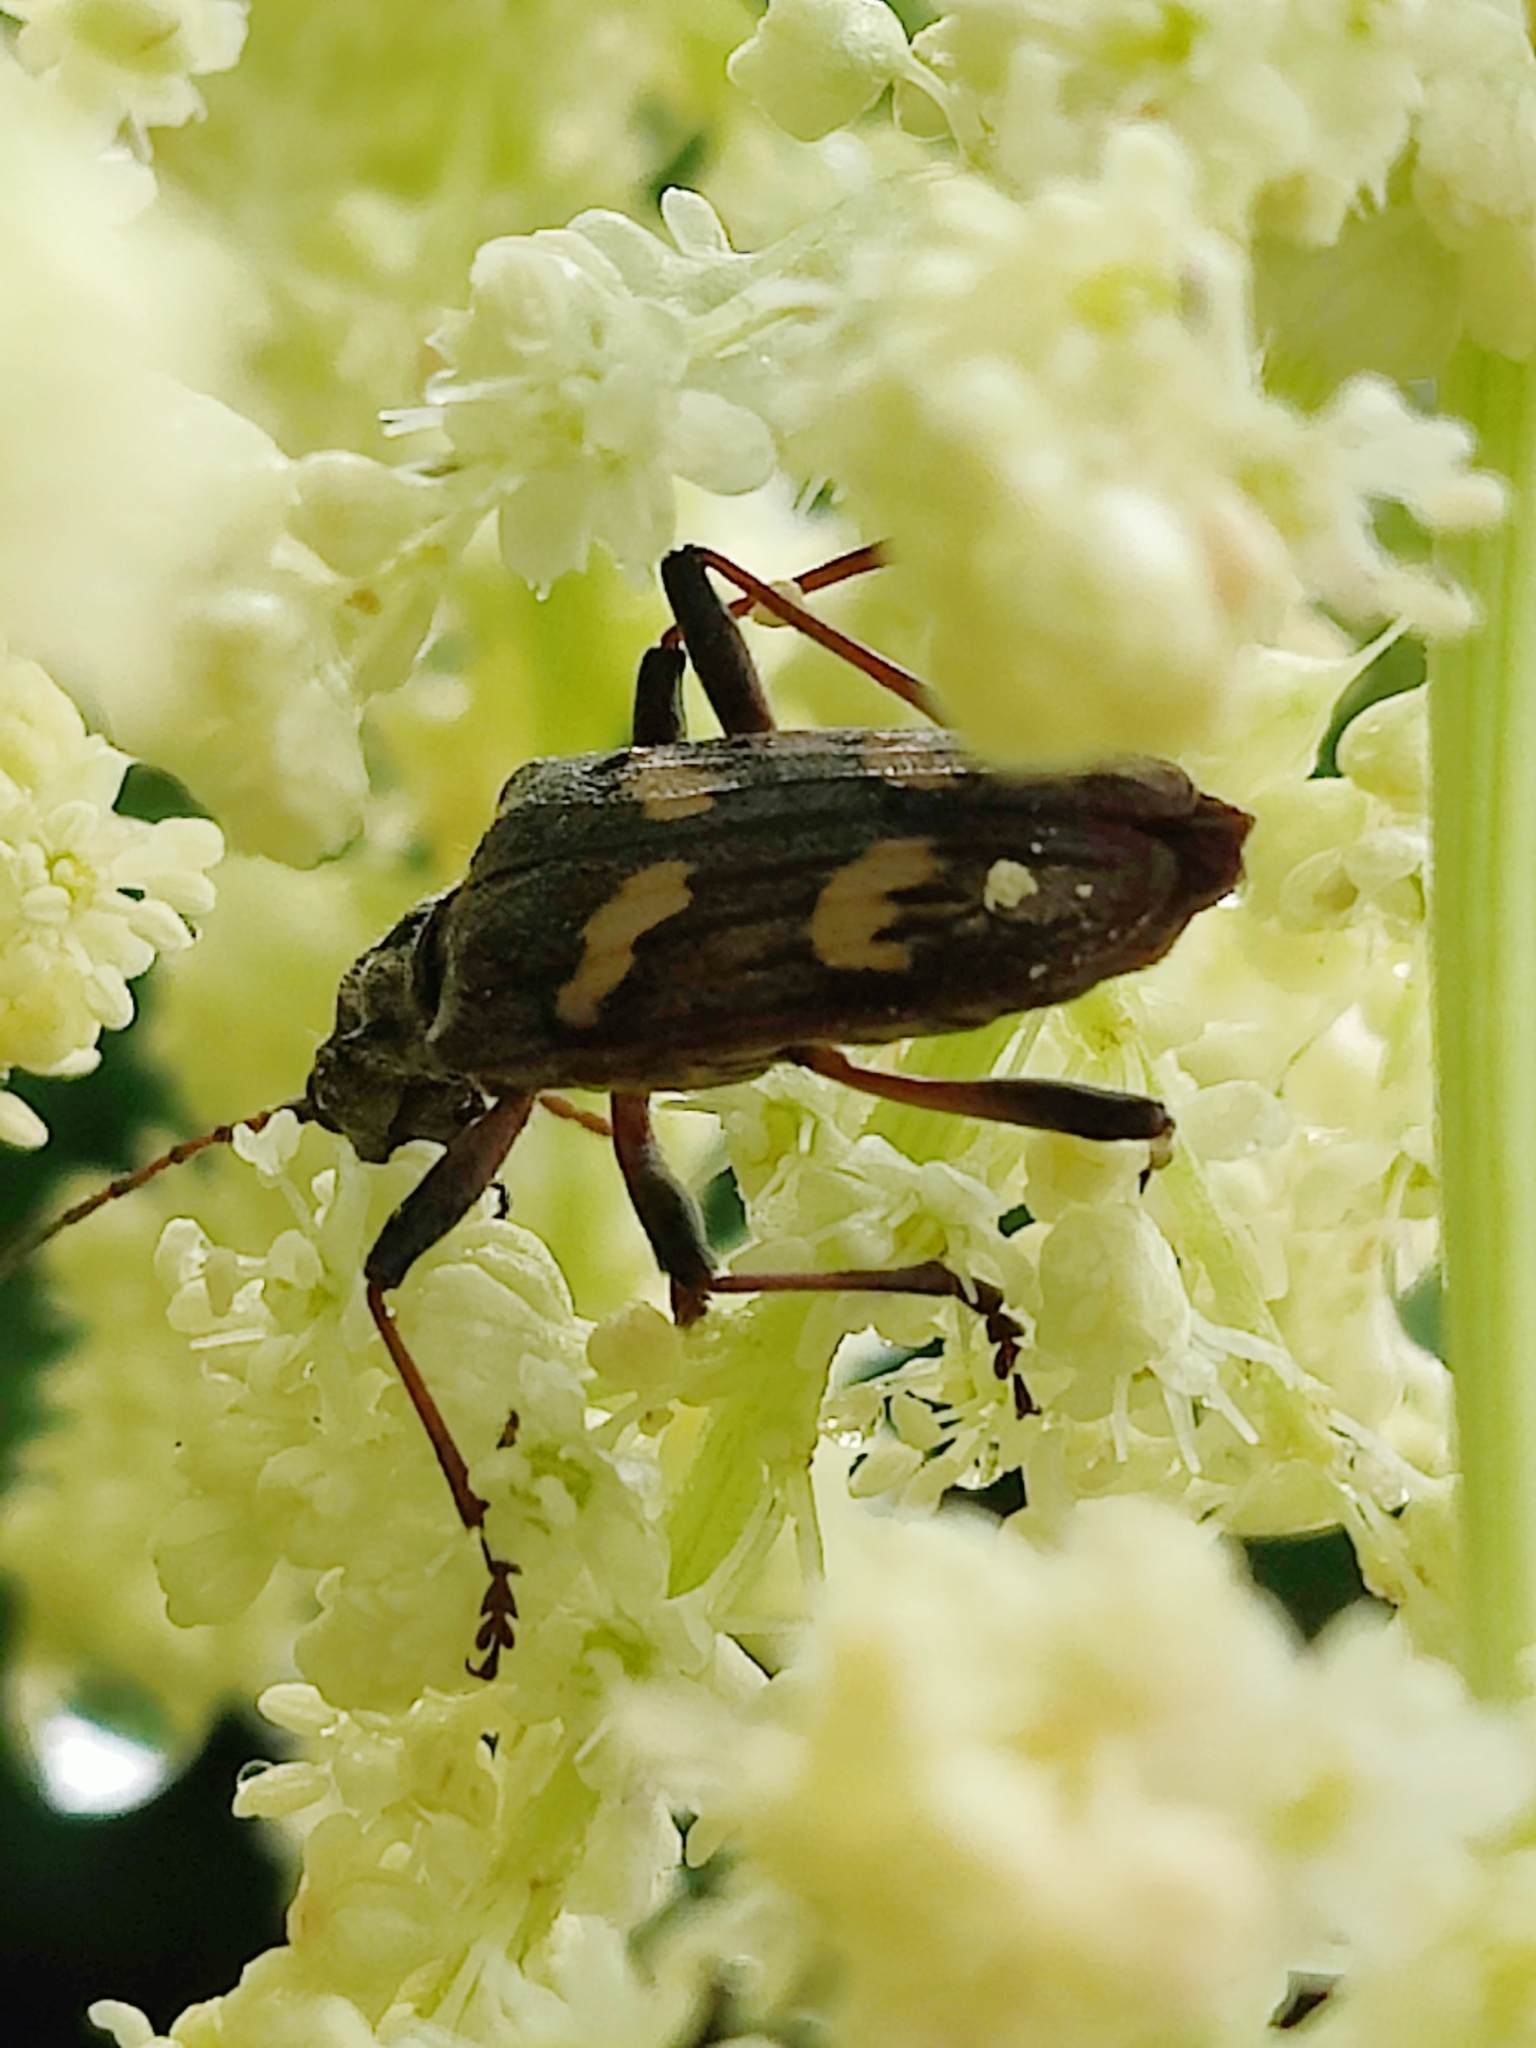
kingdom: Animalia
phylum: Arthropoda
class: Insecta
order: Coleoptera
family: Cerambycidae
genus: Rhagium
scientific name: Rhagium bifasciatum
